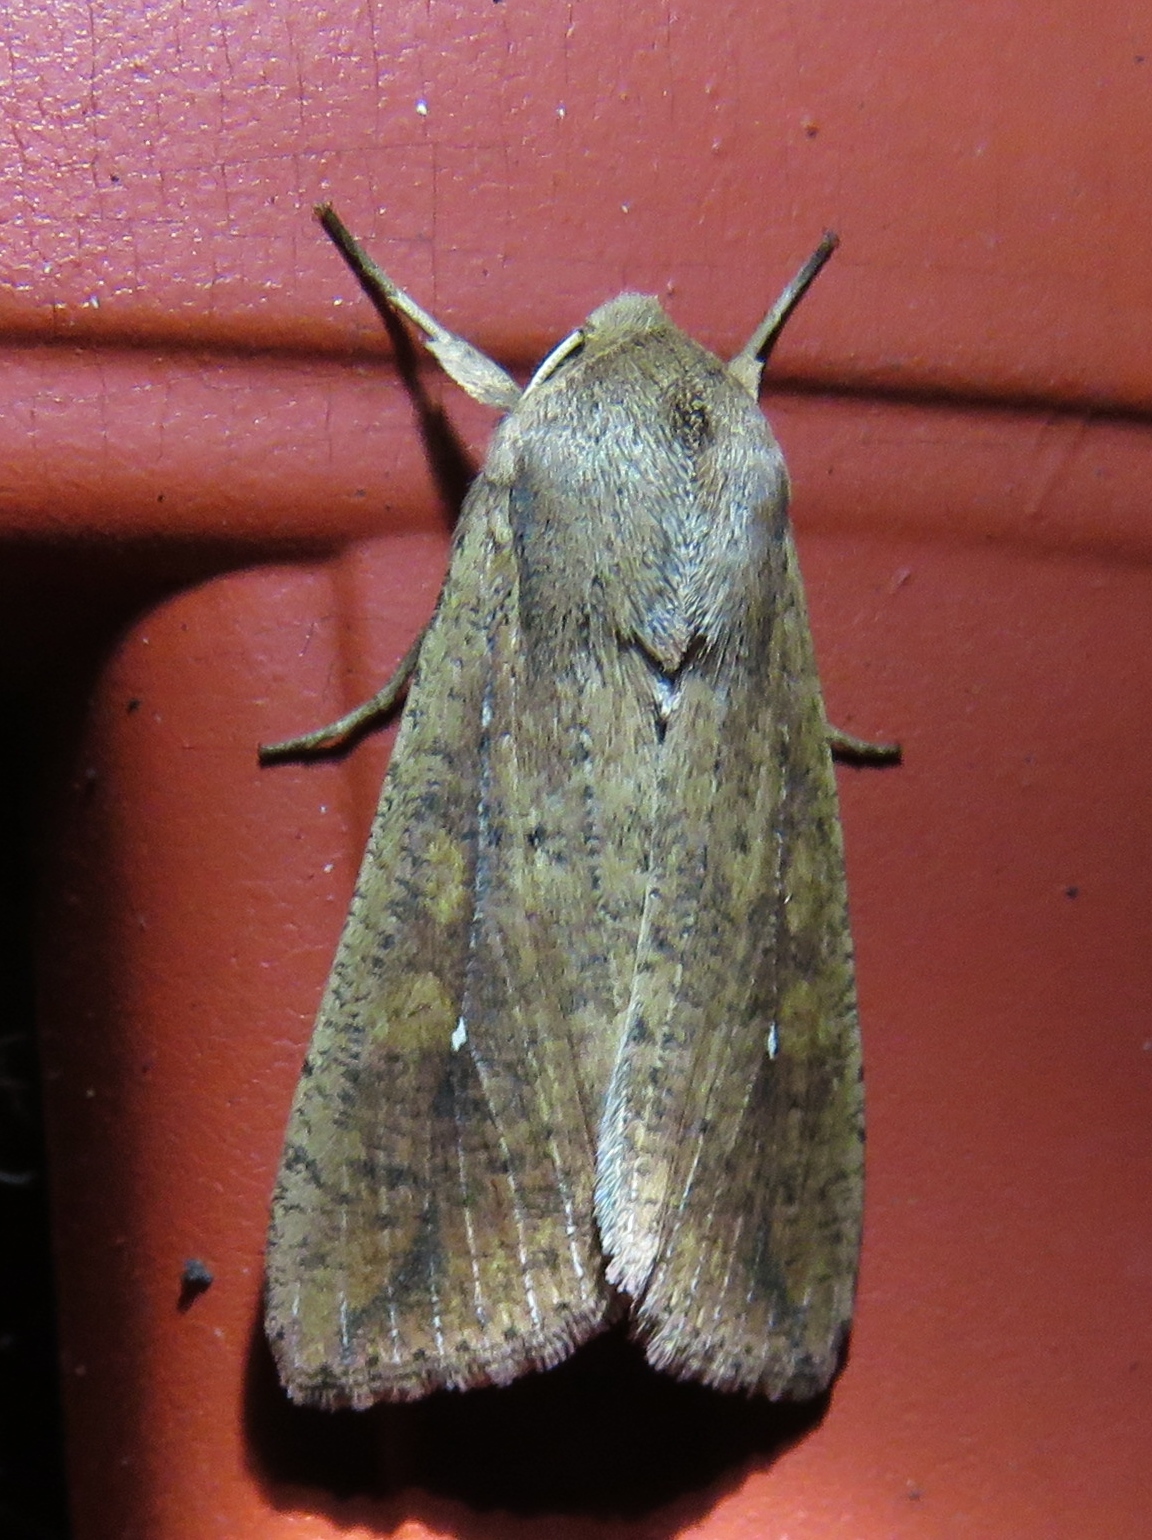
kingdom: Animalia
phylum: Arthropoda
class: Insecta
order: Lepidoptera
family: Noctuidae
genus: Mythimna
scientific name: Mythimna unipuncta
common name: White-speck
